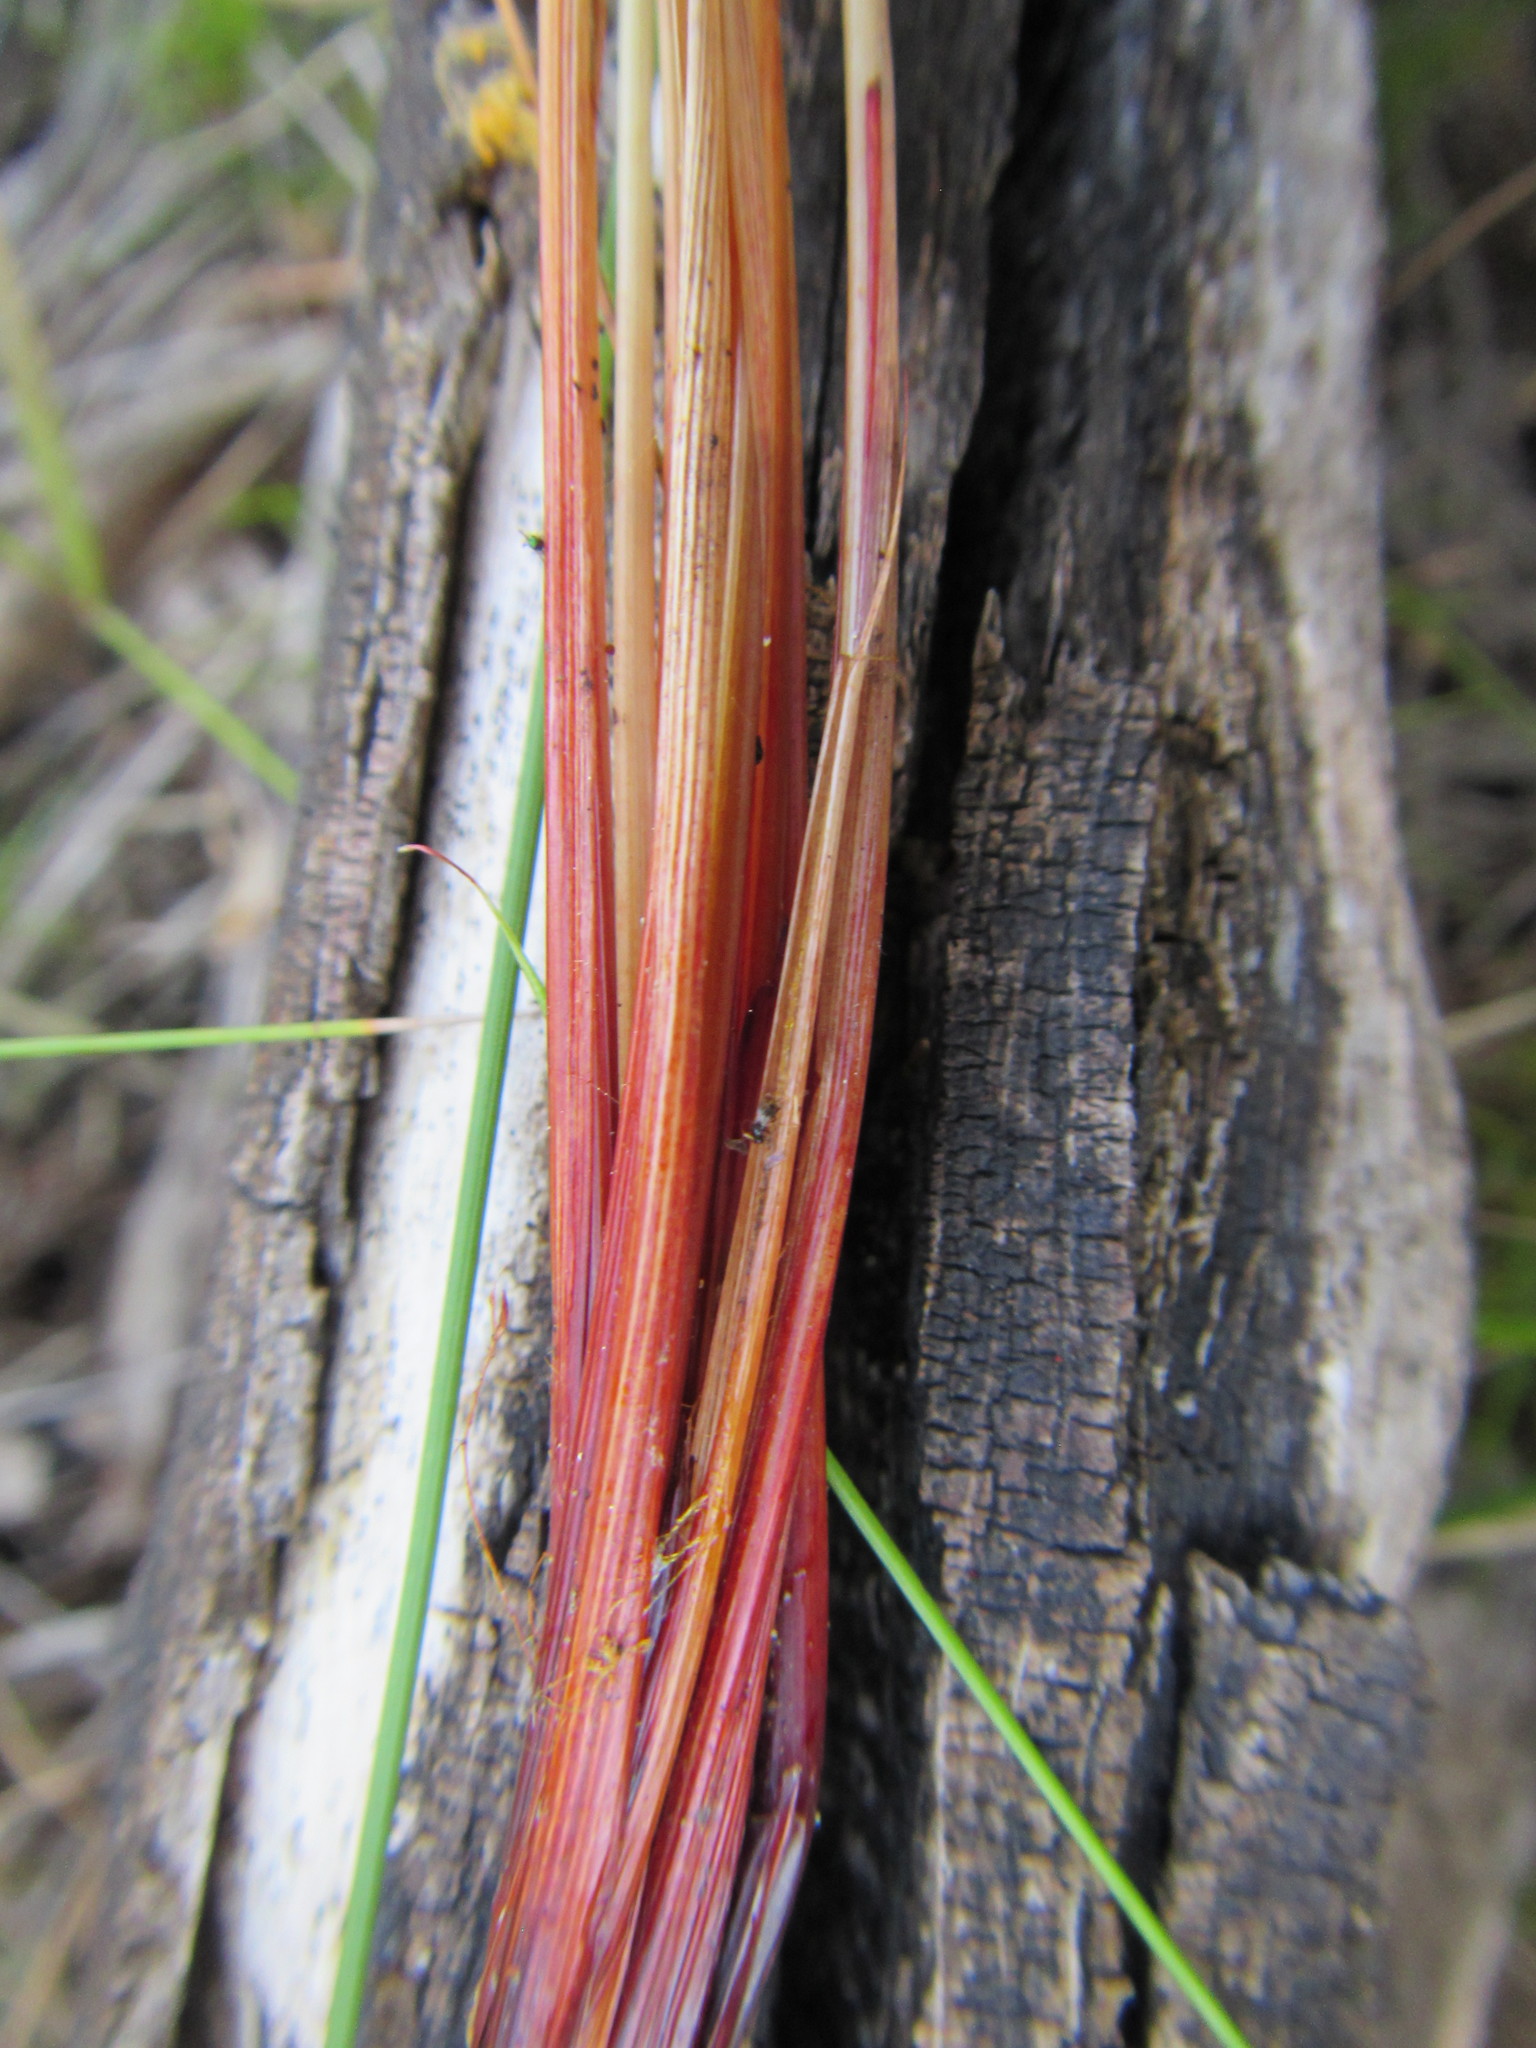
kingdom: Plantae
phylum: Tracheophyta
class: Liliopsida
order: Poales
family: Cyperaceae
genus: Schoenus
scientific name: Schoenus ligulatus
